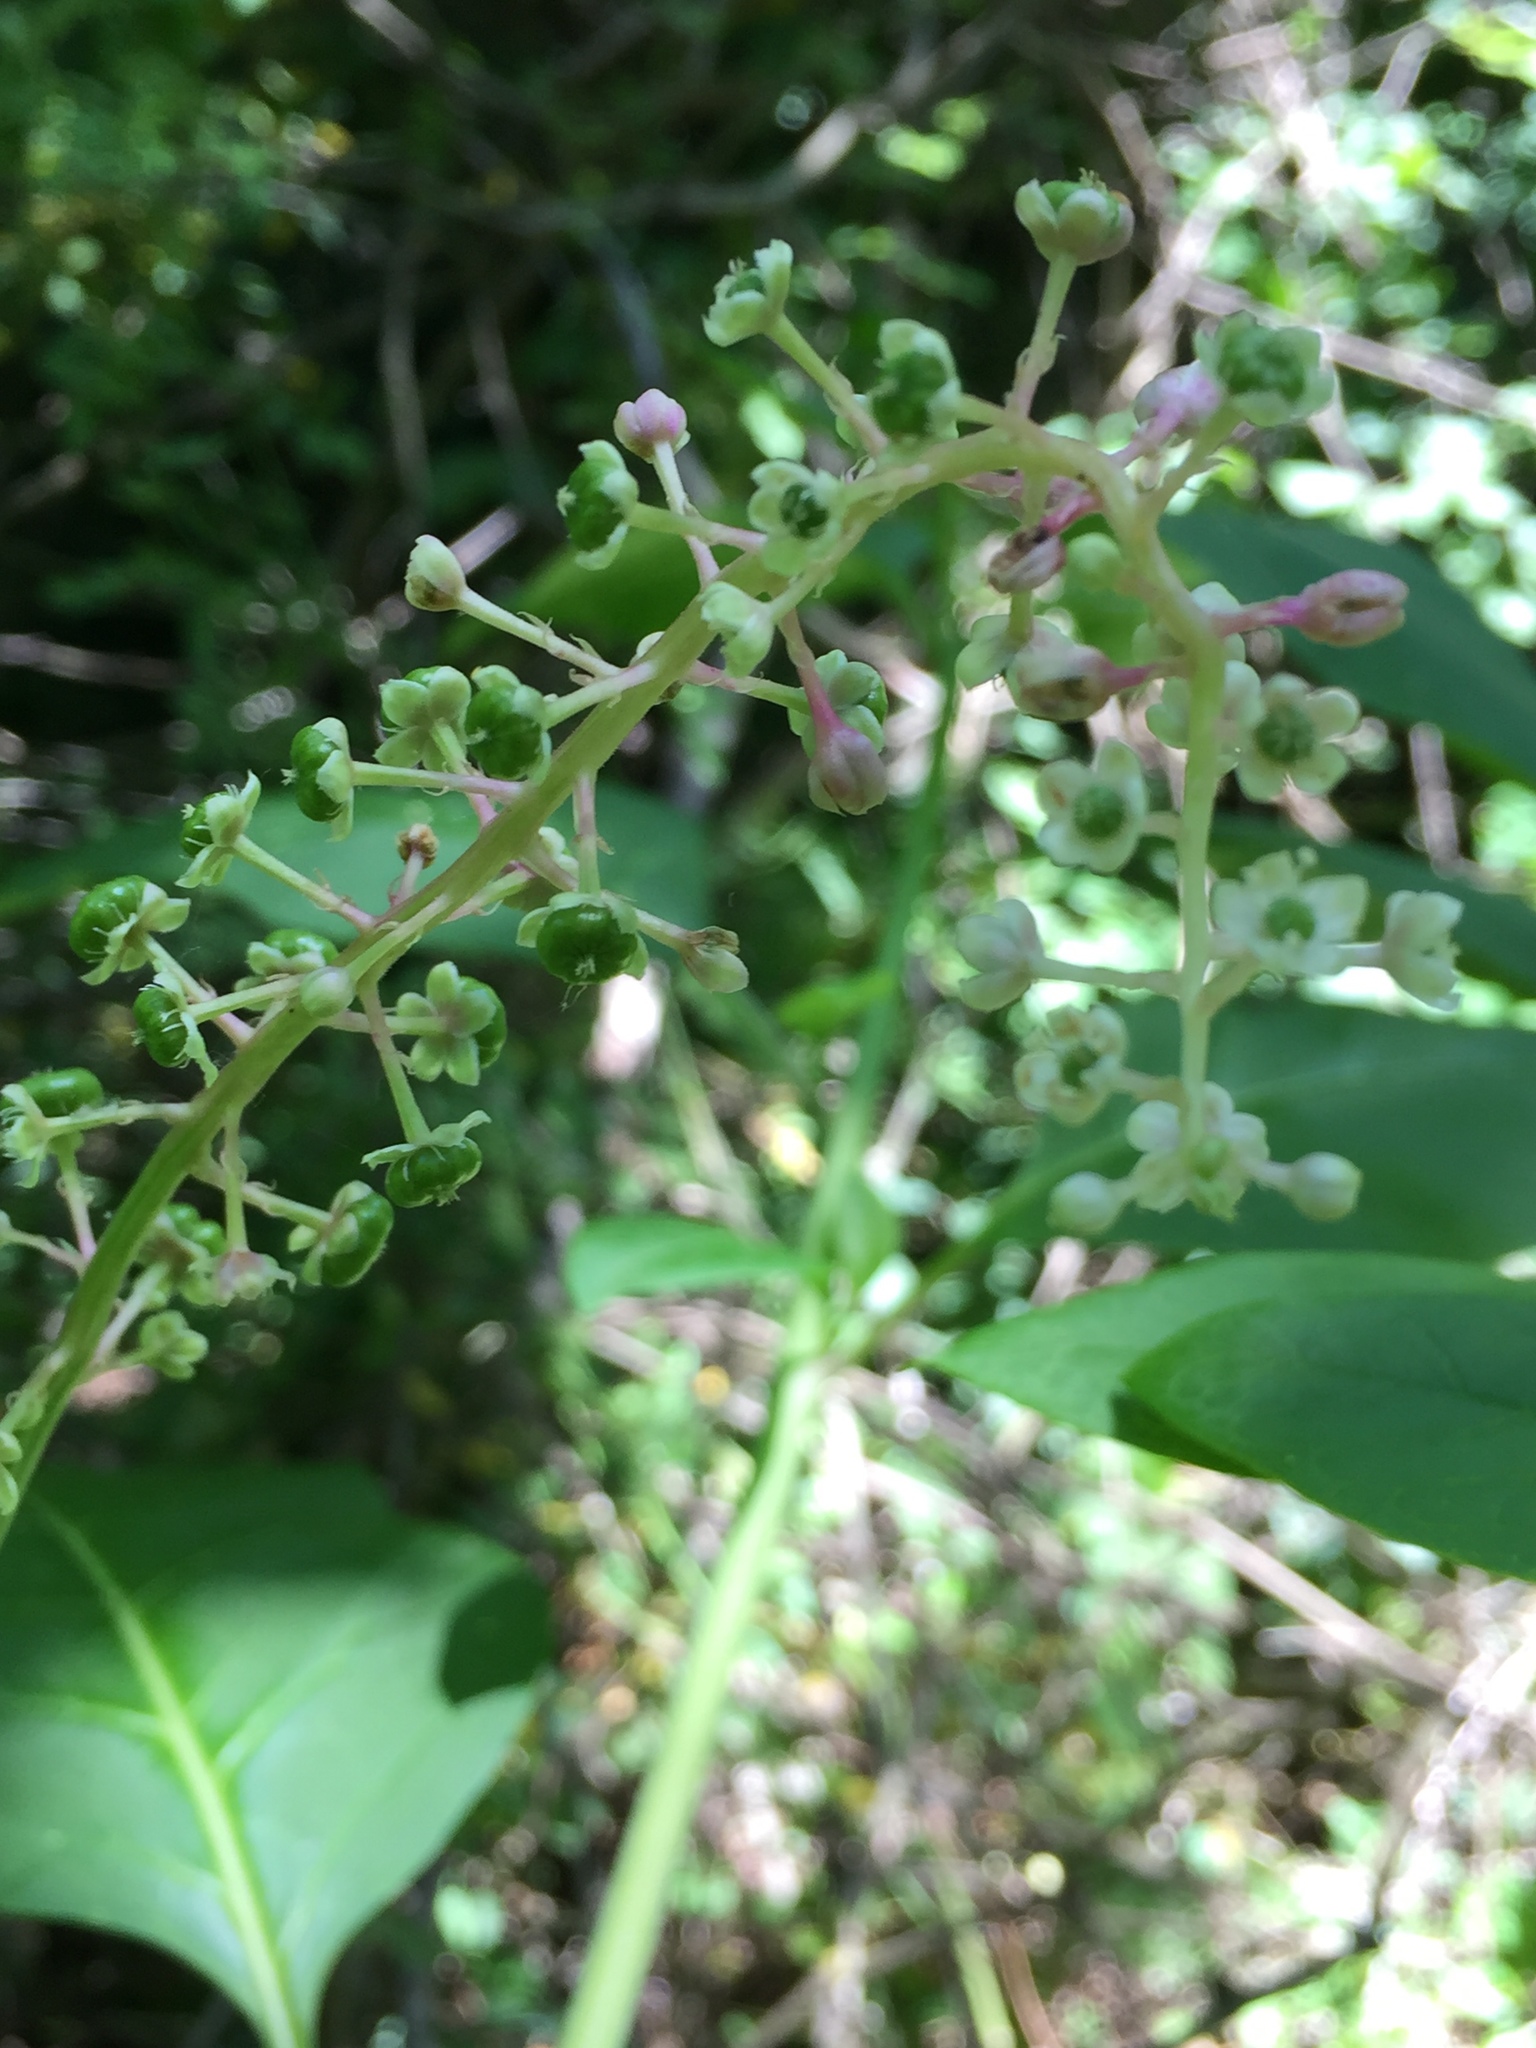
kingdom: Plantae
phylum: Tracheophyta
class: Magnoliopsida
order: Caryophyllales
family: Phytolaccaceae
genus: Phytolacca
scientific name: Phytolacca americana
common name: American pokeweed
